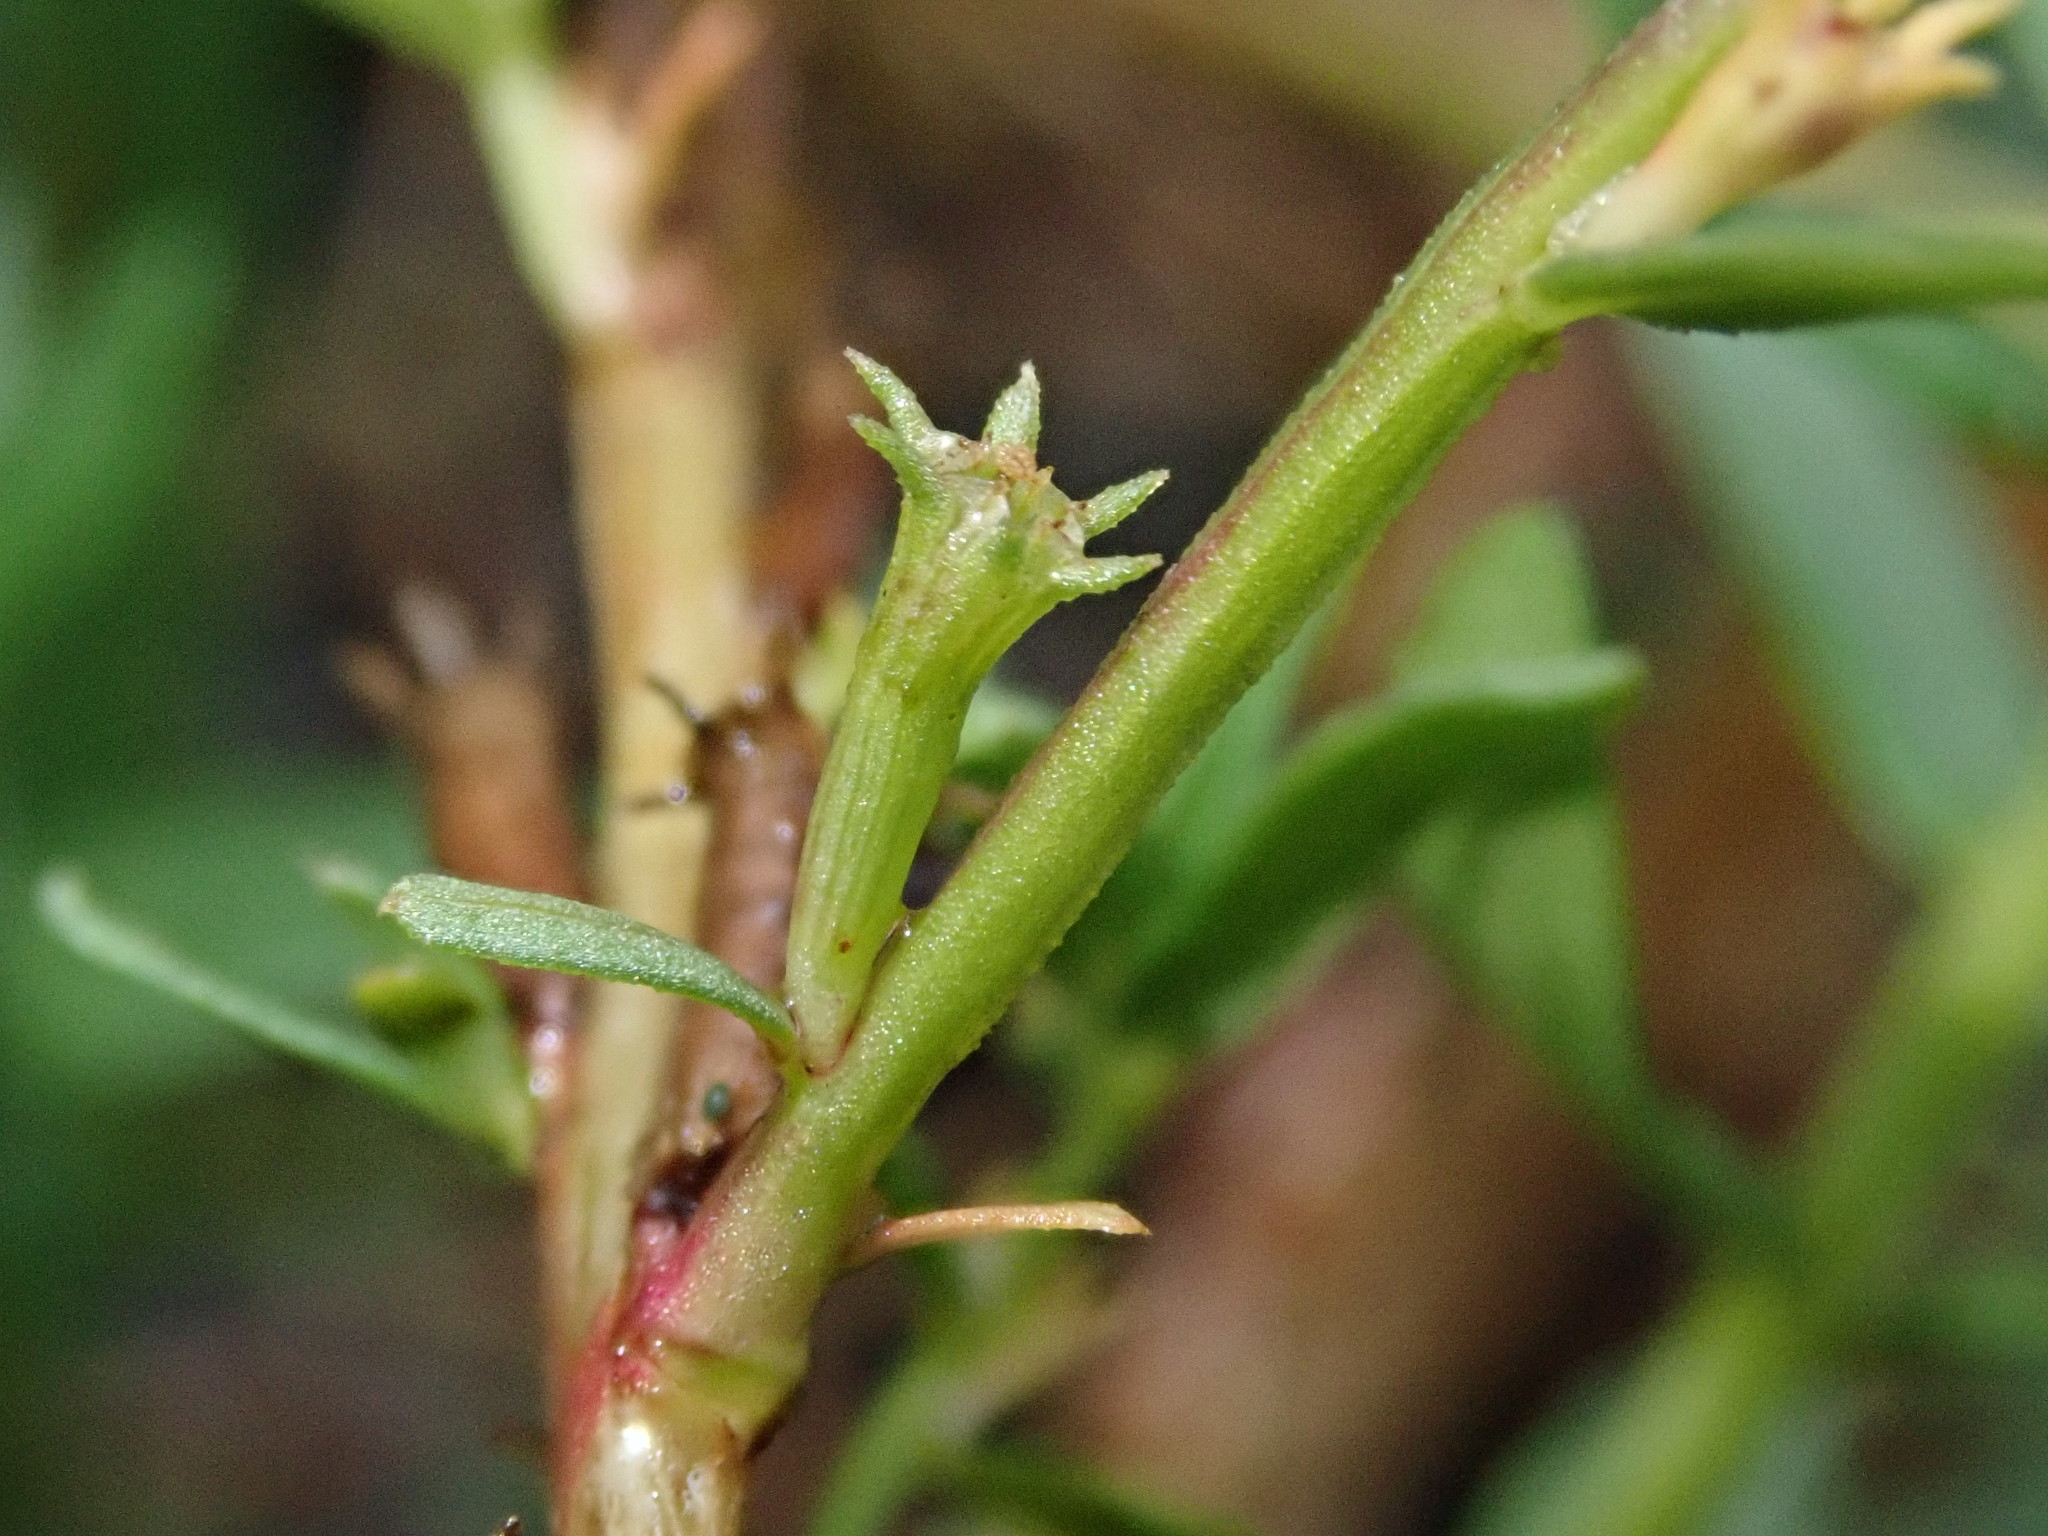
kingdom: Plantae
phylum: Tracheophyta
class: Magnoliopsida
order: Myrtales
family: Lythraceae
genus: Lythrum
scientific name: Lythrum hyssopifolia
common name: Grass-poly
